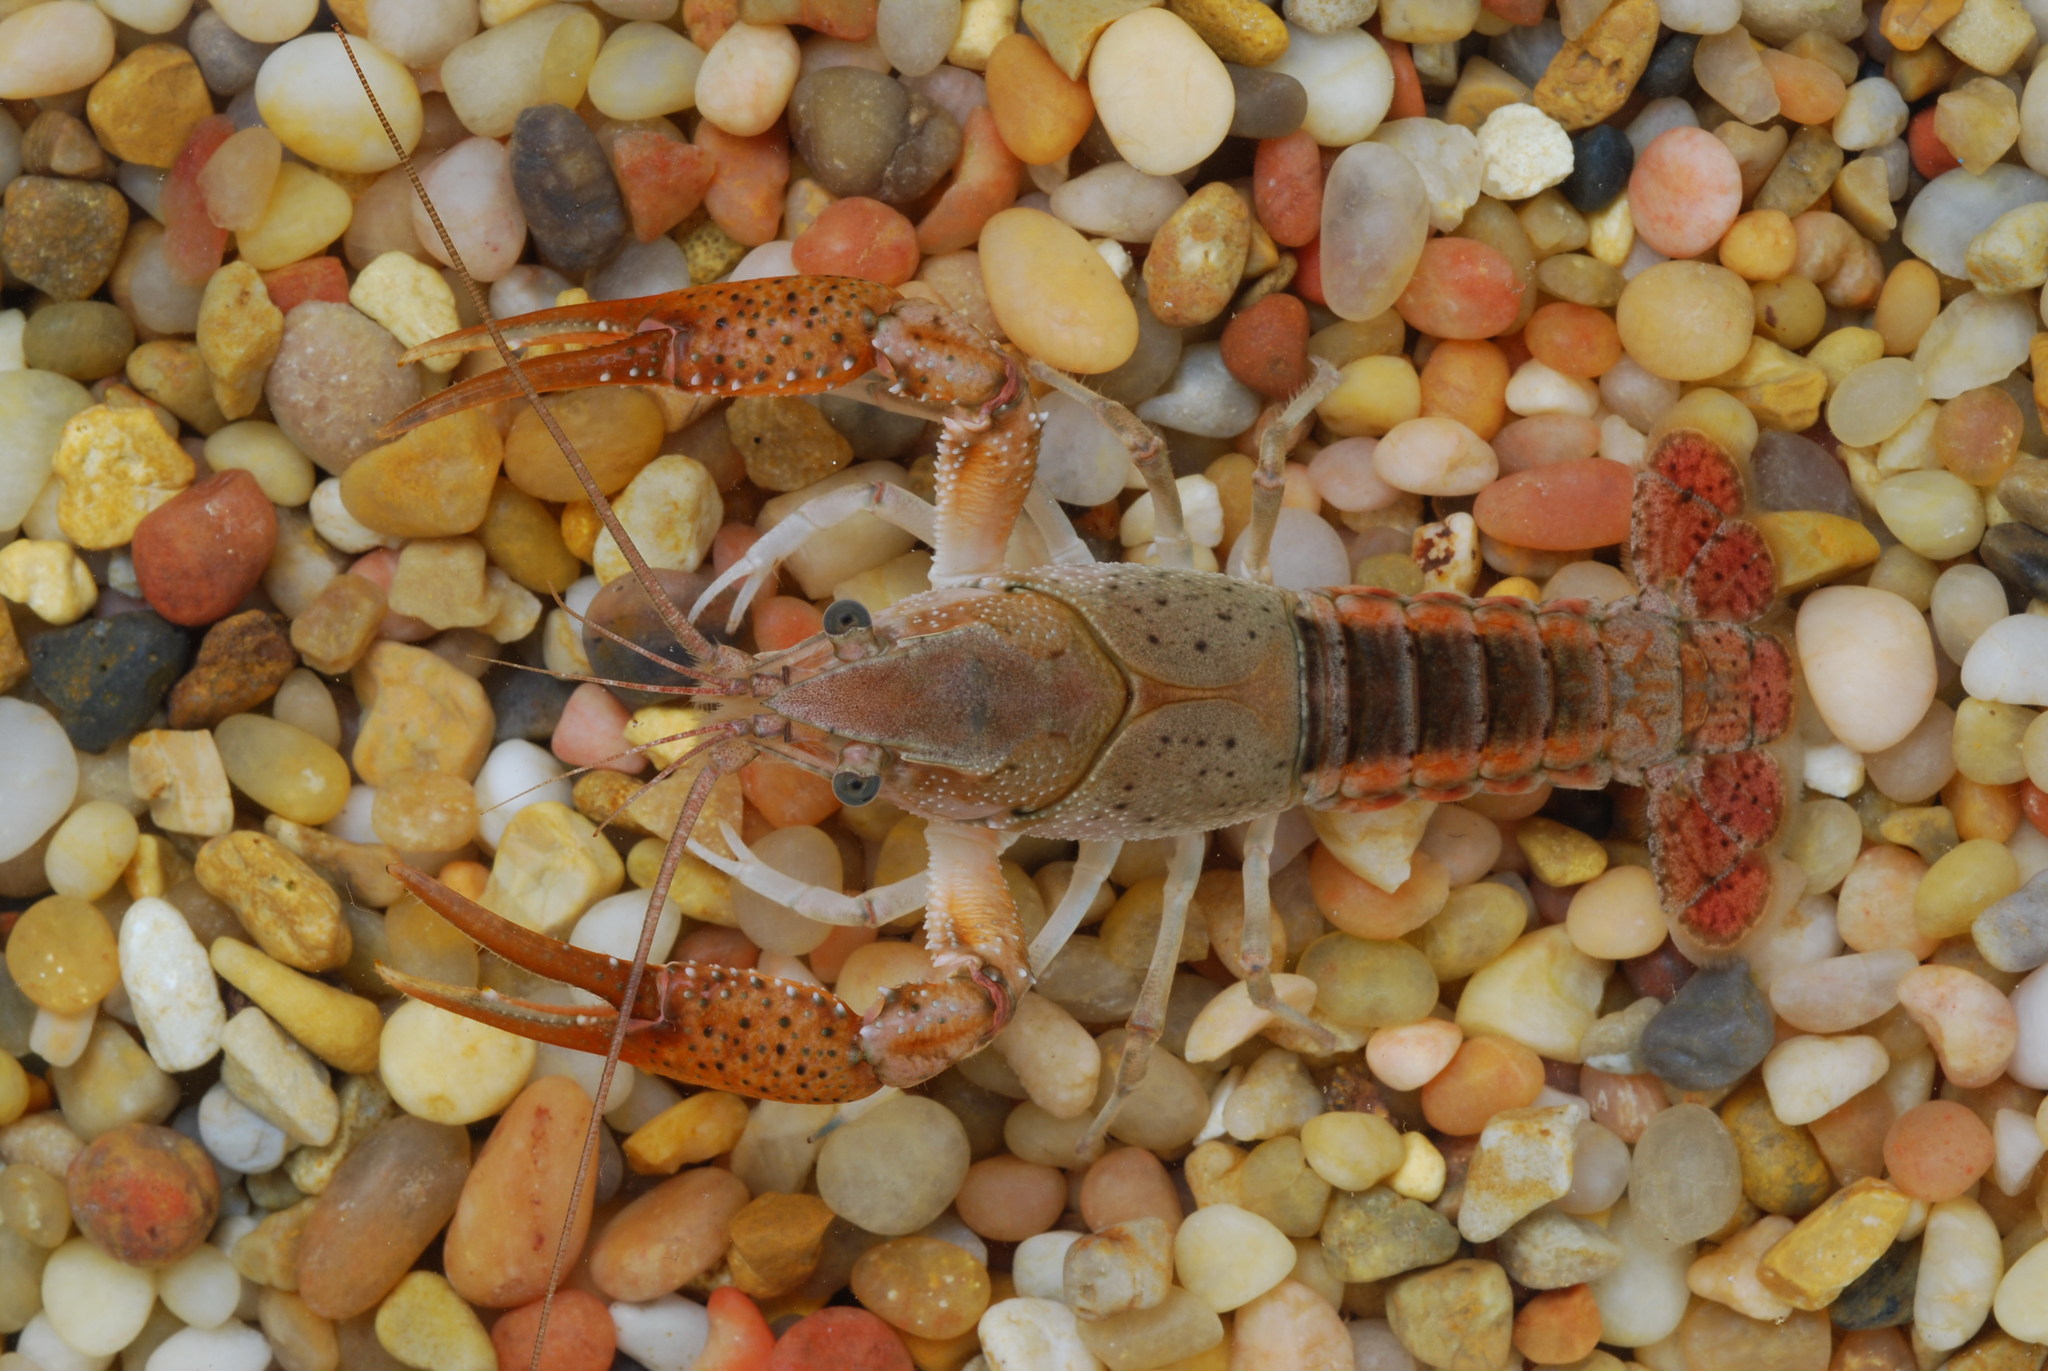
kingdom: Animalia
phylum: Arthropoda
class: Malacostraca
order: Decapoda
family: Cambaridae
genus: Procambarus
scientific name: Procambarus zonangulus
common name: Southern white river crayfish
